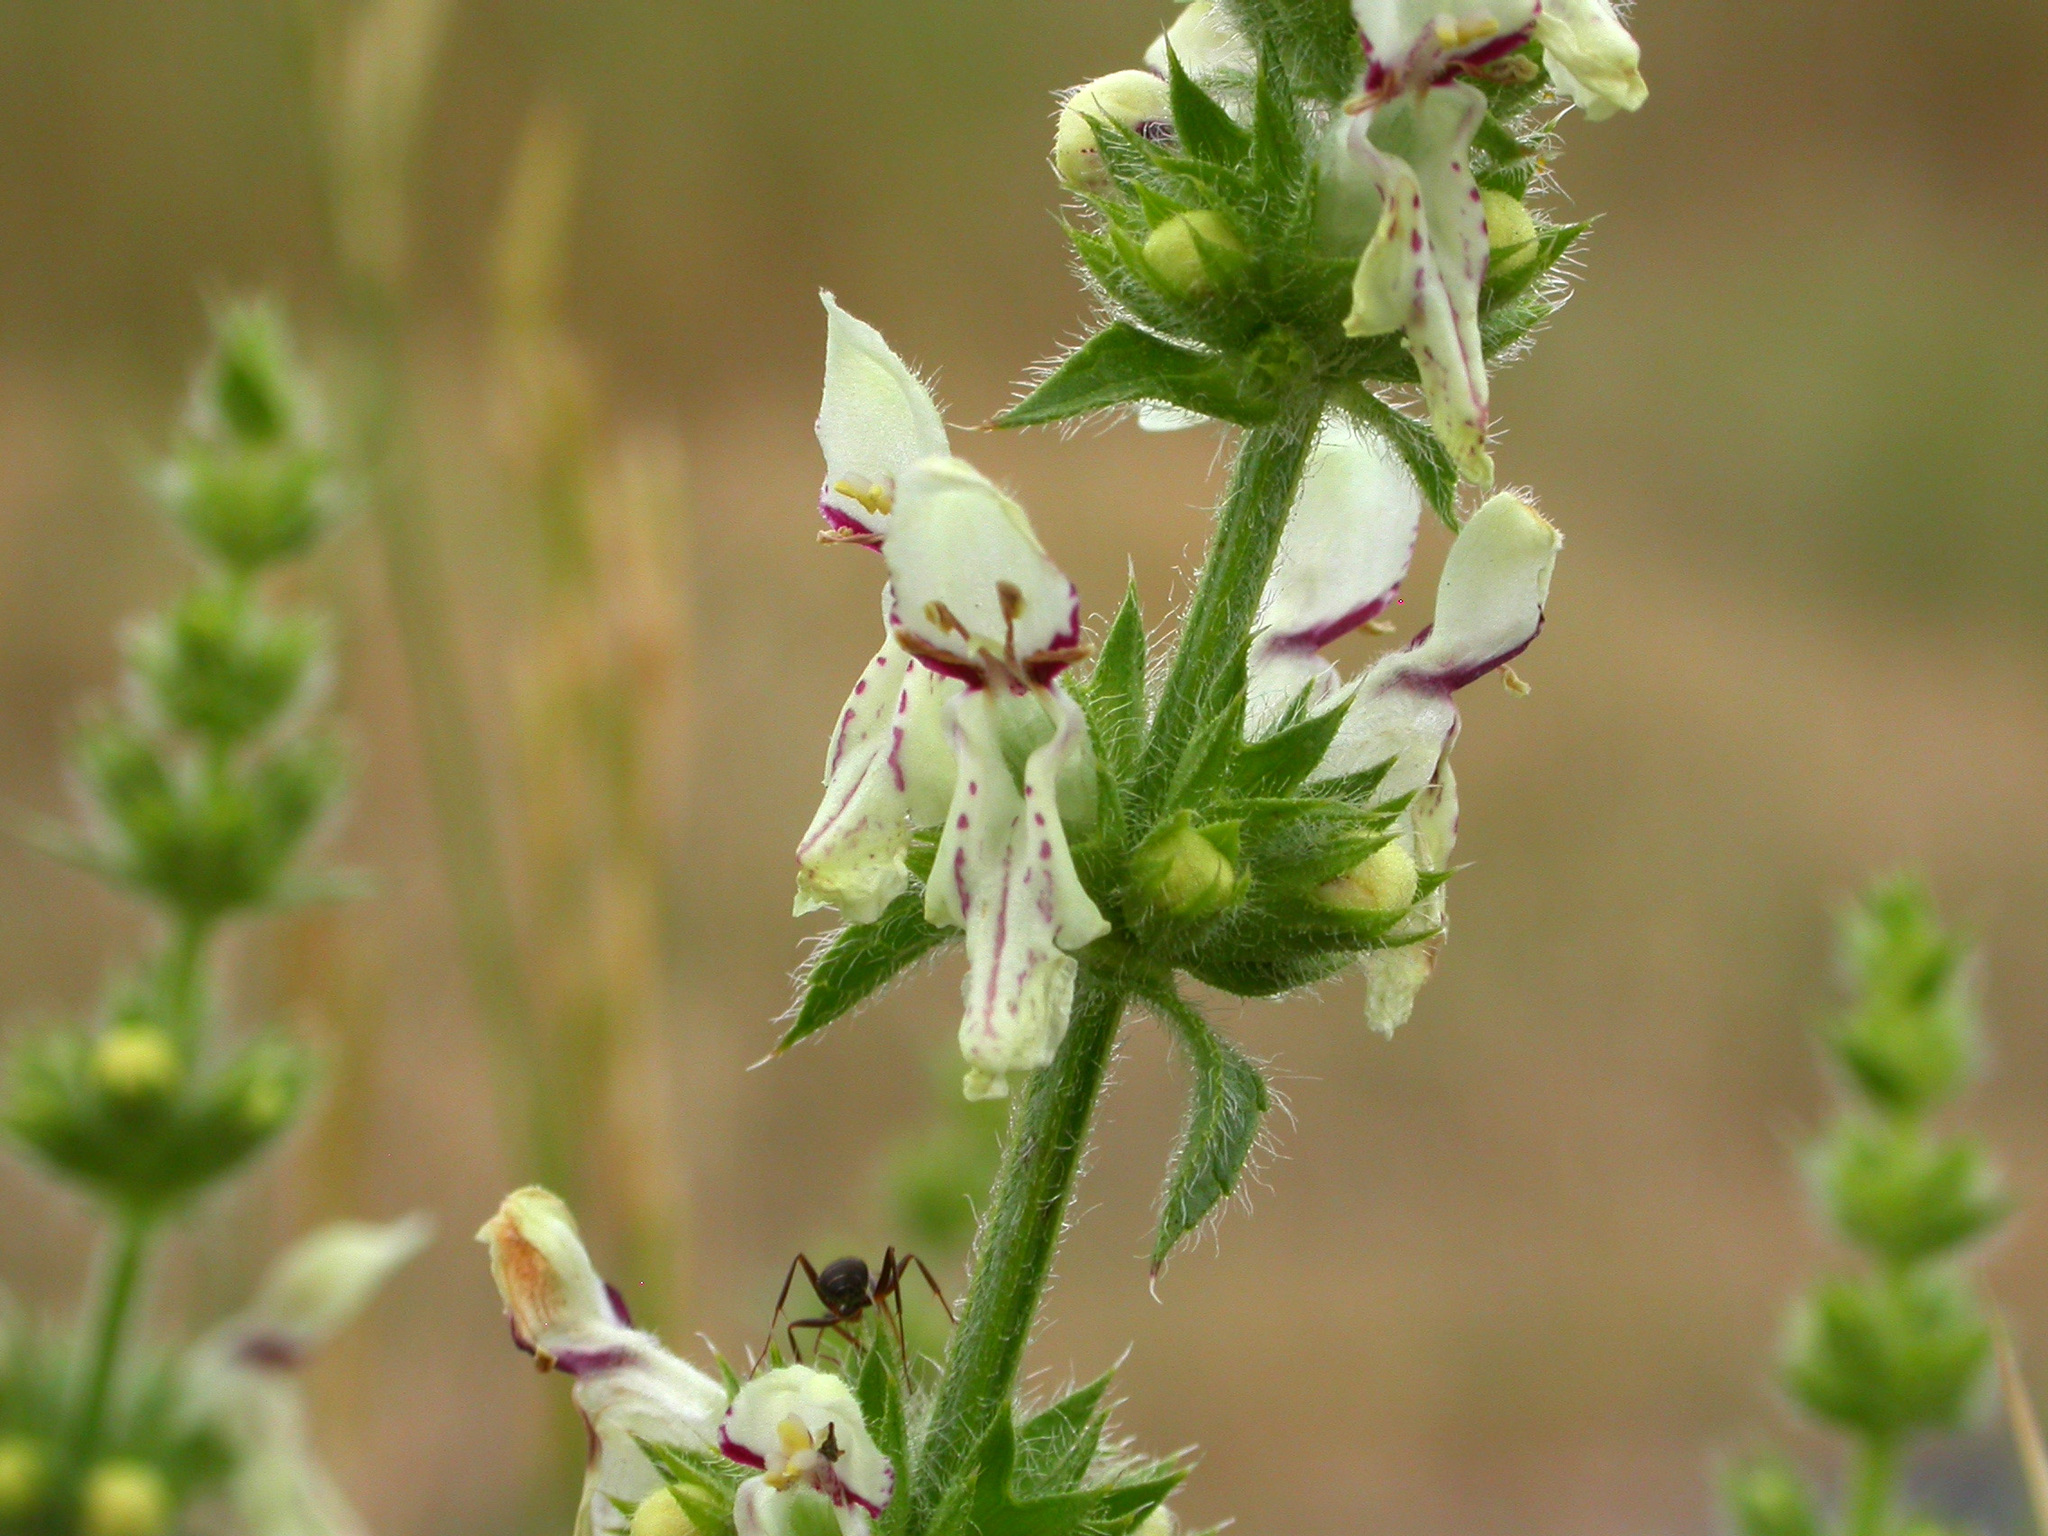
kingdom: Plantae
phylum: Tracheophyta
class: Magnoliopsida
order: Lamiales
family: Lamiaceae
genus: Stachys
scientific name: Stachys recta
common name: Perennial yellow-woundwort
